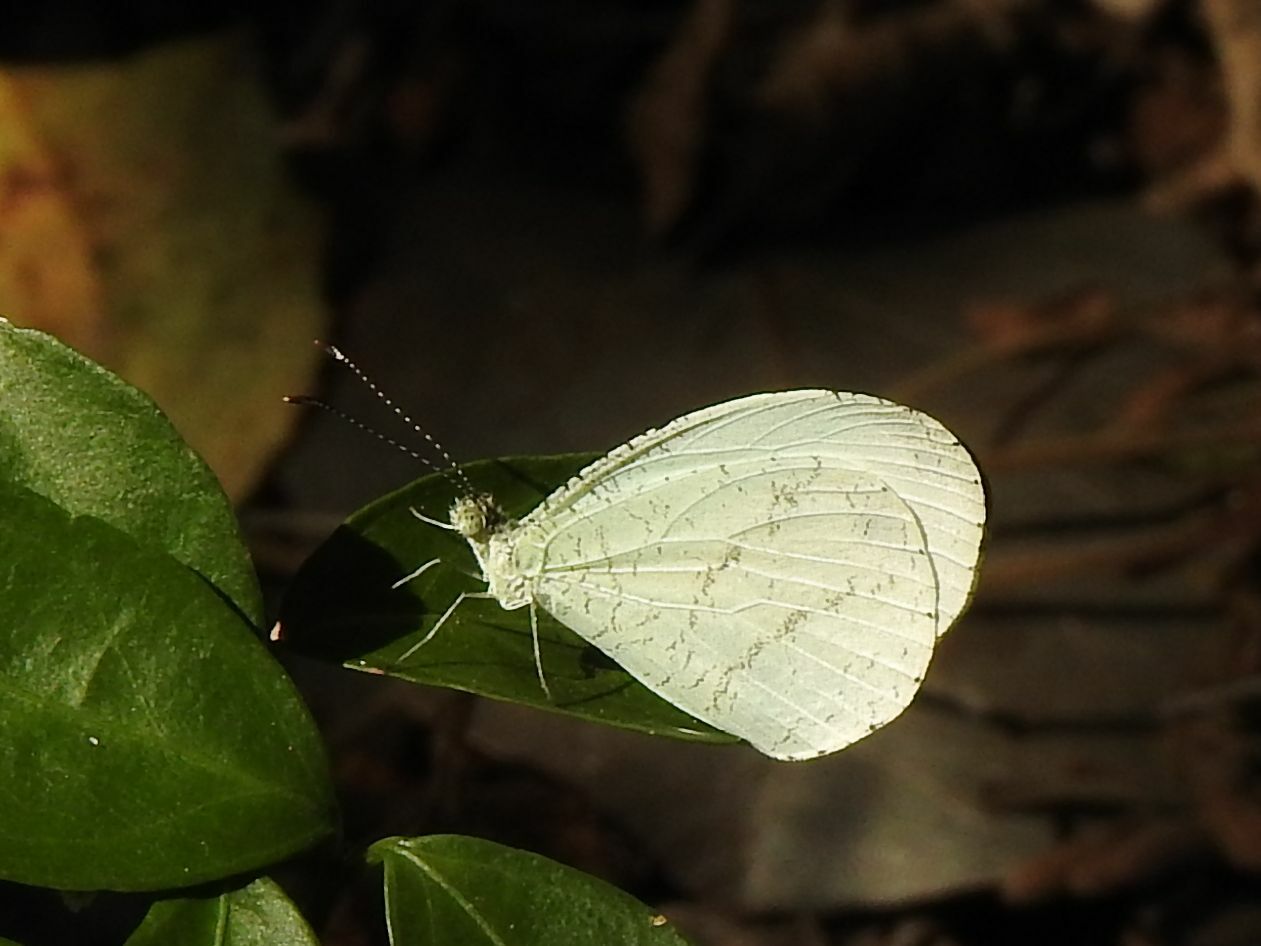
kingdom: Animalia
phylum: Arthropoda
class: Insecta
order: Lepidoptera
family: Pieridae
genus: Leptosia
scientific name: Leptosia alcesta
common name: African wood white
